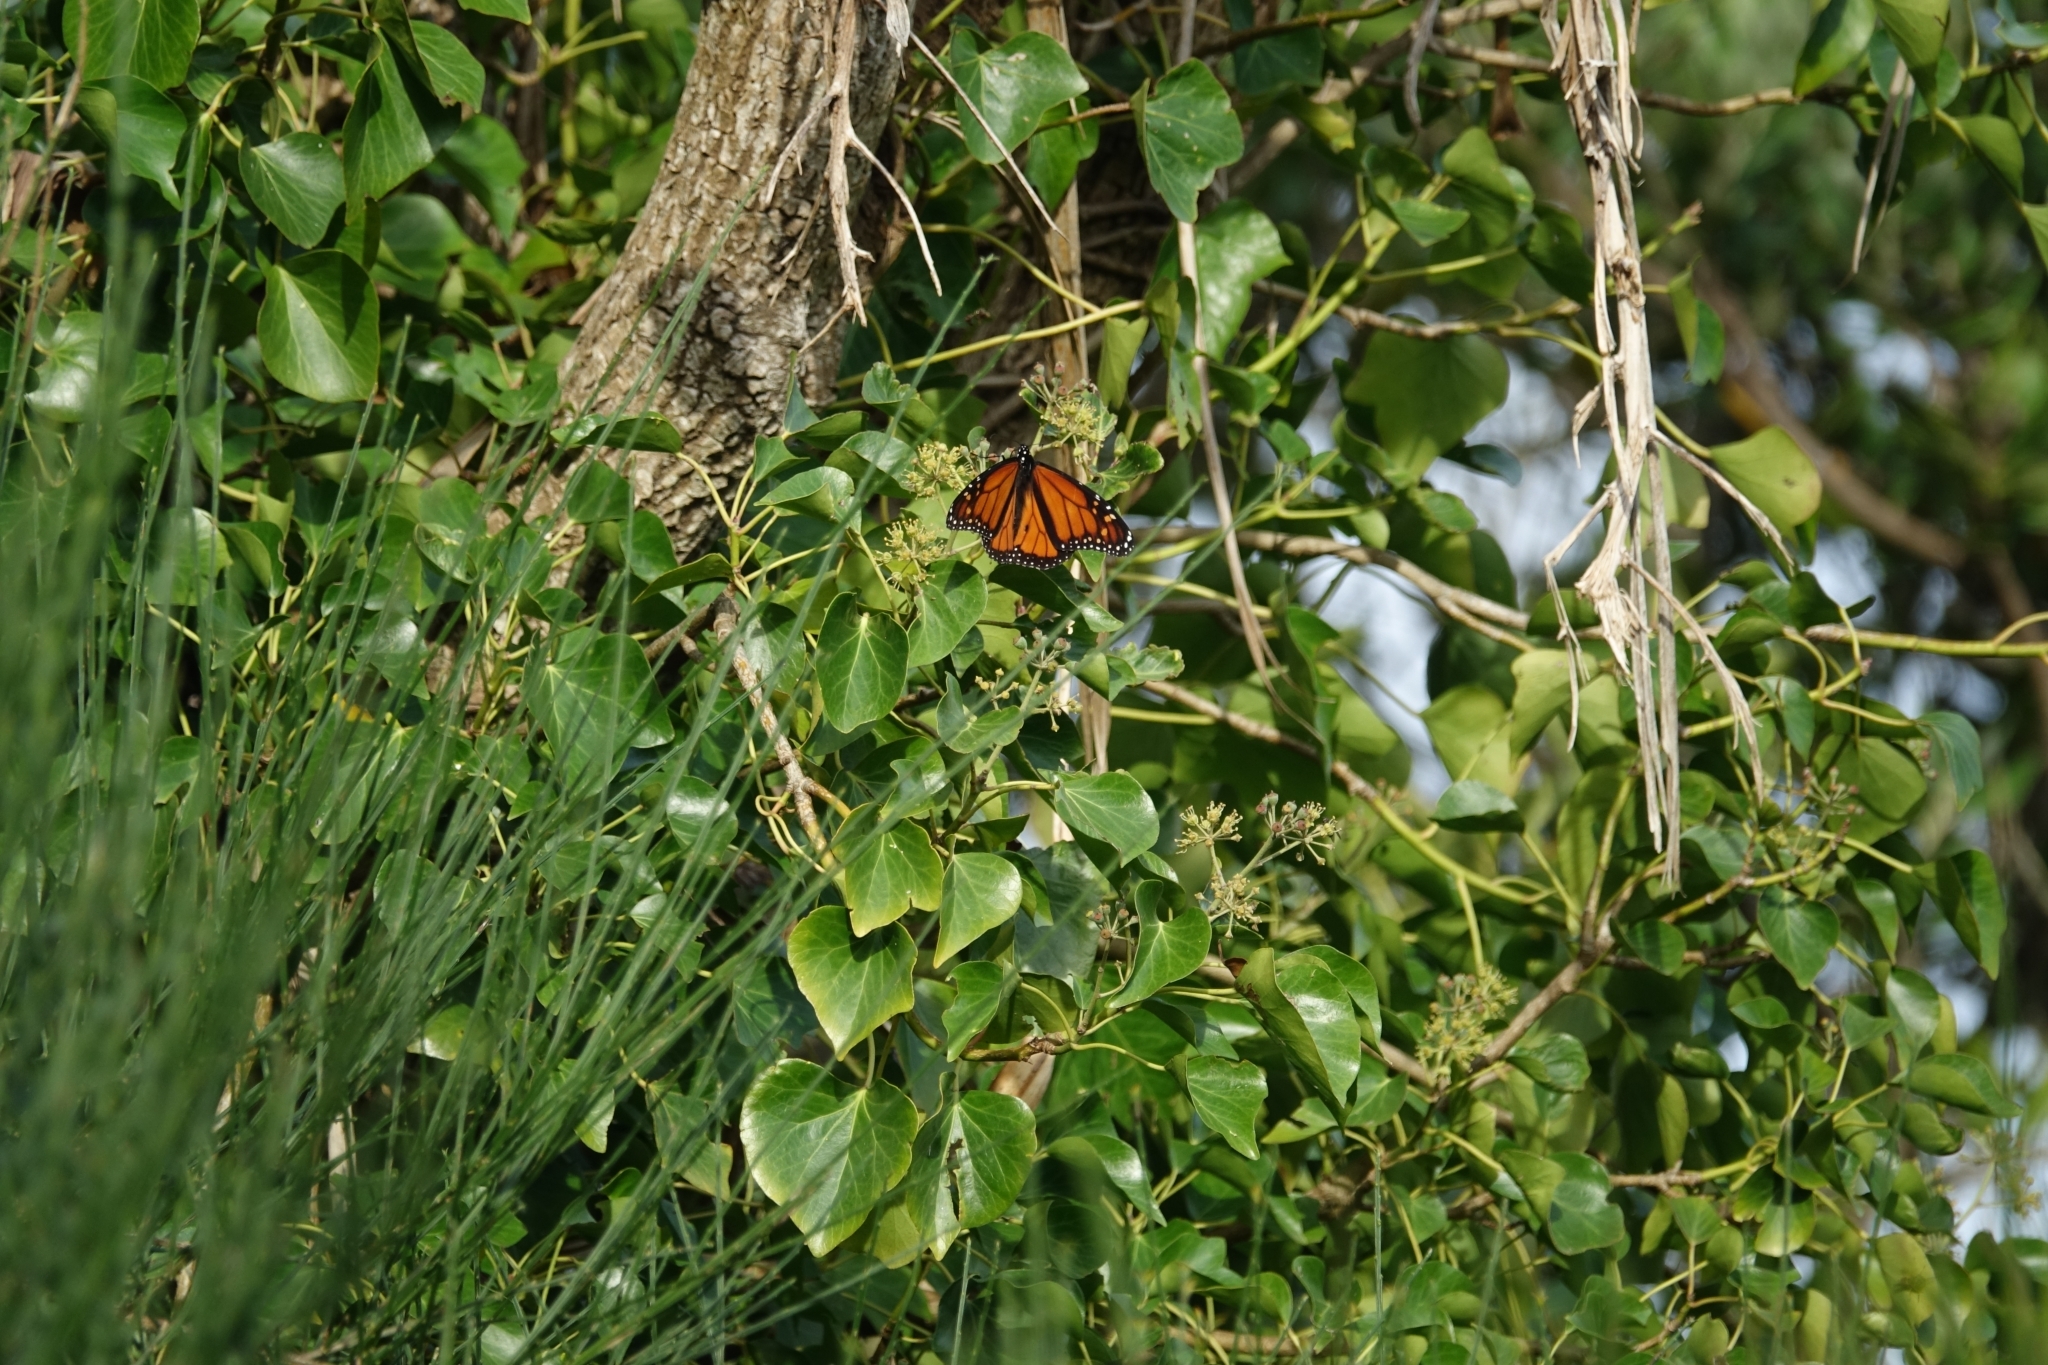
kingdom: Animalia
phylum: Arthropoda
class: Insecta
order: Lepidoptera
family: Nymphalidae
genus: Danaus
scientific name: Danaus plexippus
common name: Monarch
